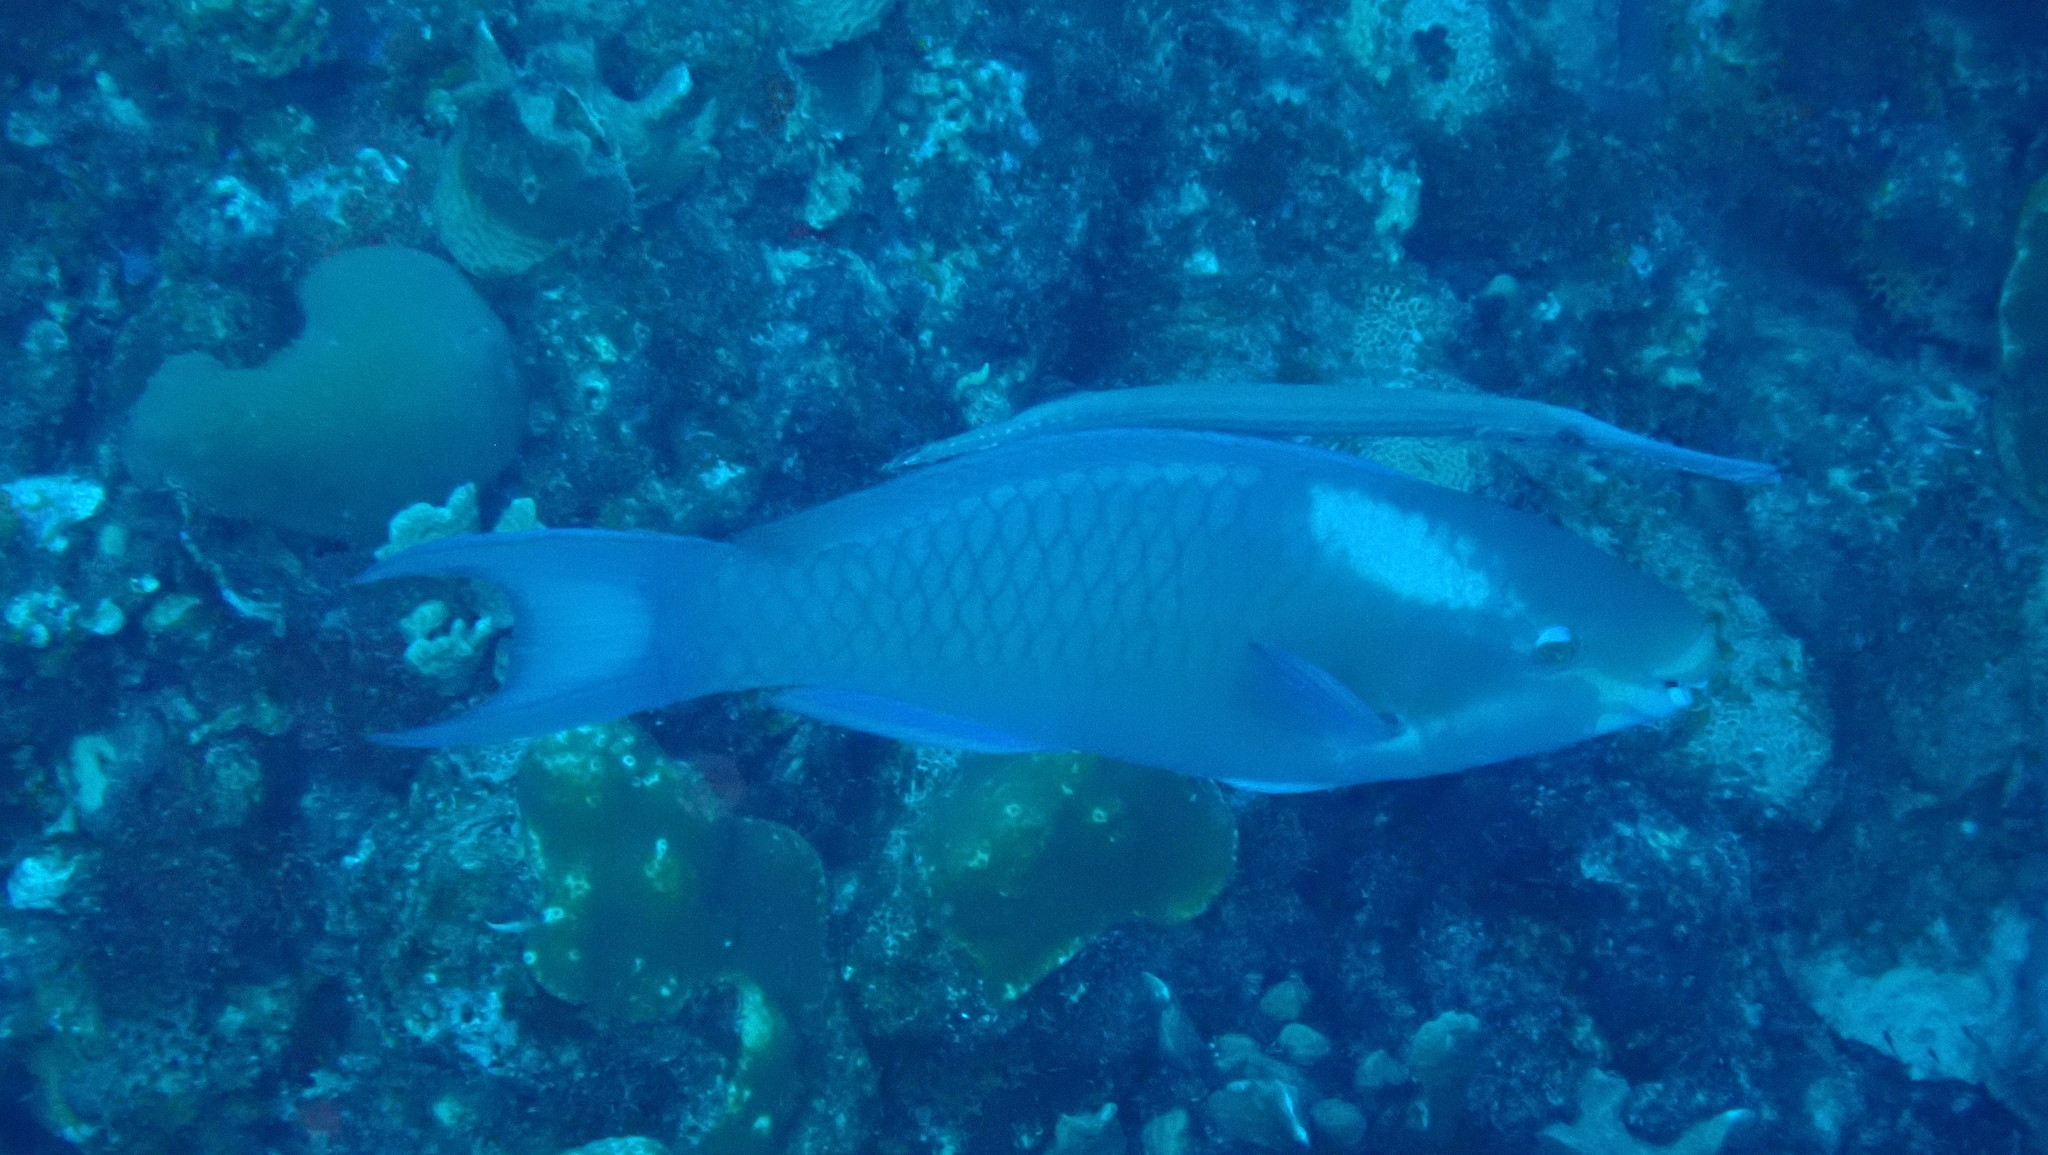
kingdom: Animalia
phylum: Chordata
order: Syngnathiformes
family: Aulostomidae
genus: Aulostomus
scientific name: Aulostomus maculatus
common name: West atlantic trumpetfish
